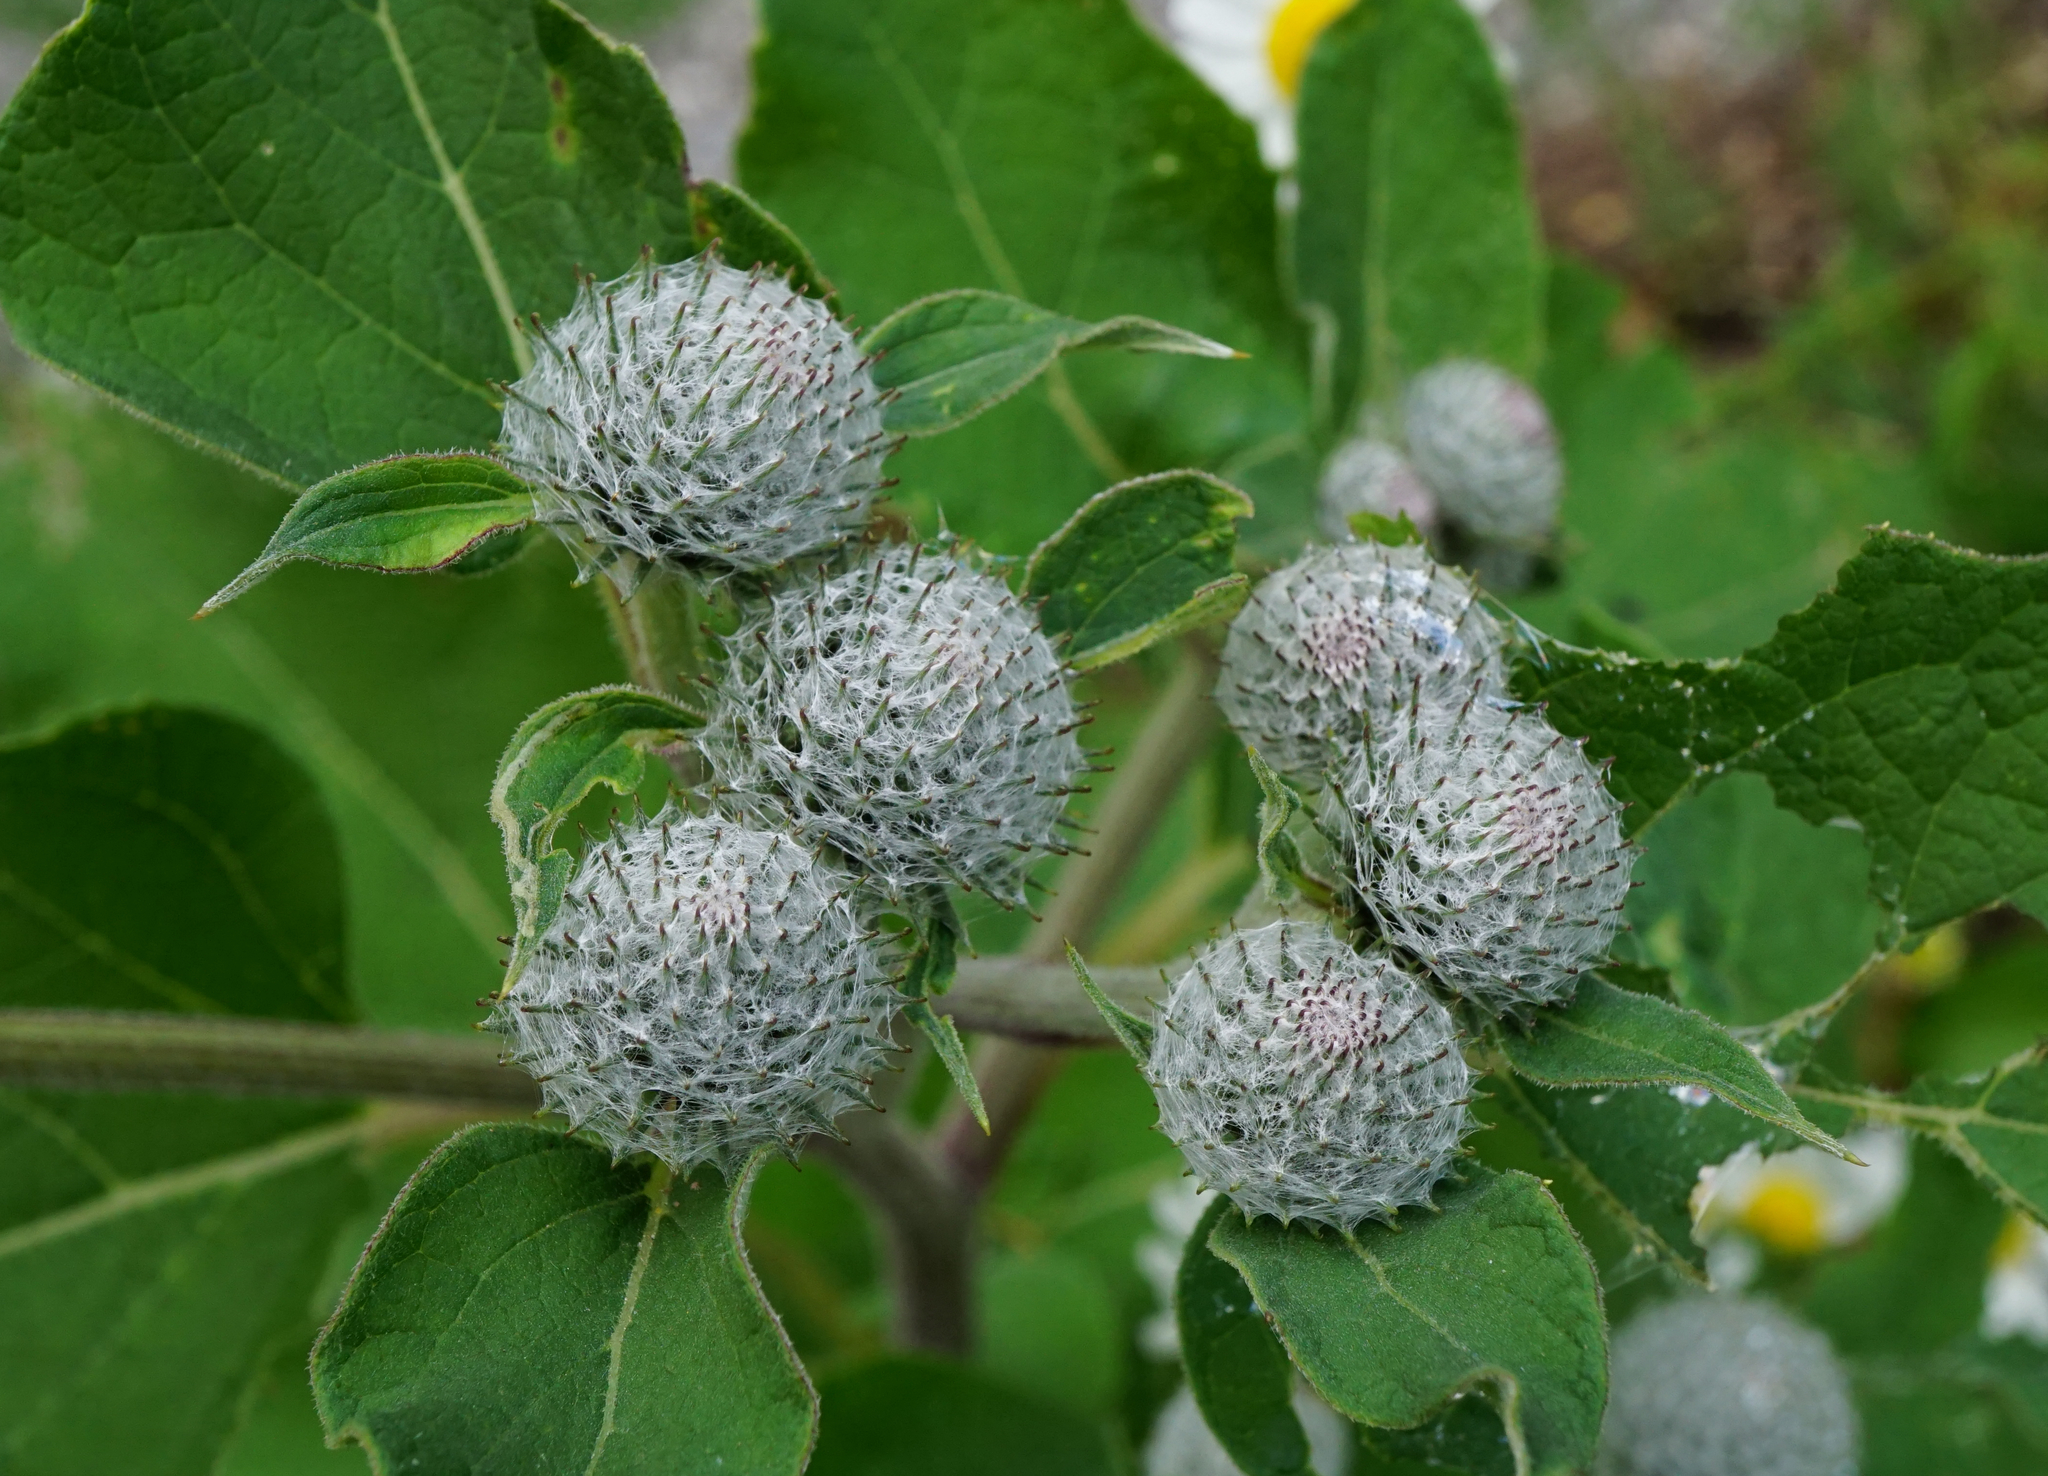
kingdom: Plantae
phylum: Tracheophyta
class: Magnoliopsida
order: Asterales
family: Asteraceae
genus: Arctium
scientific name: Arctium tomentosum
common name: Woolly burdock
